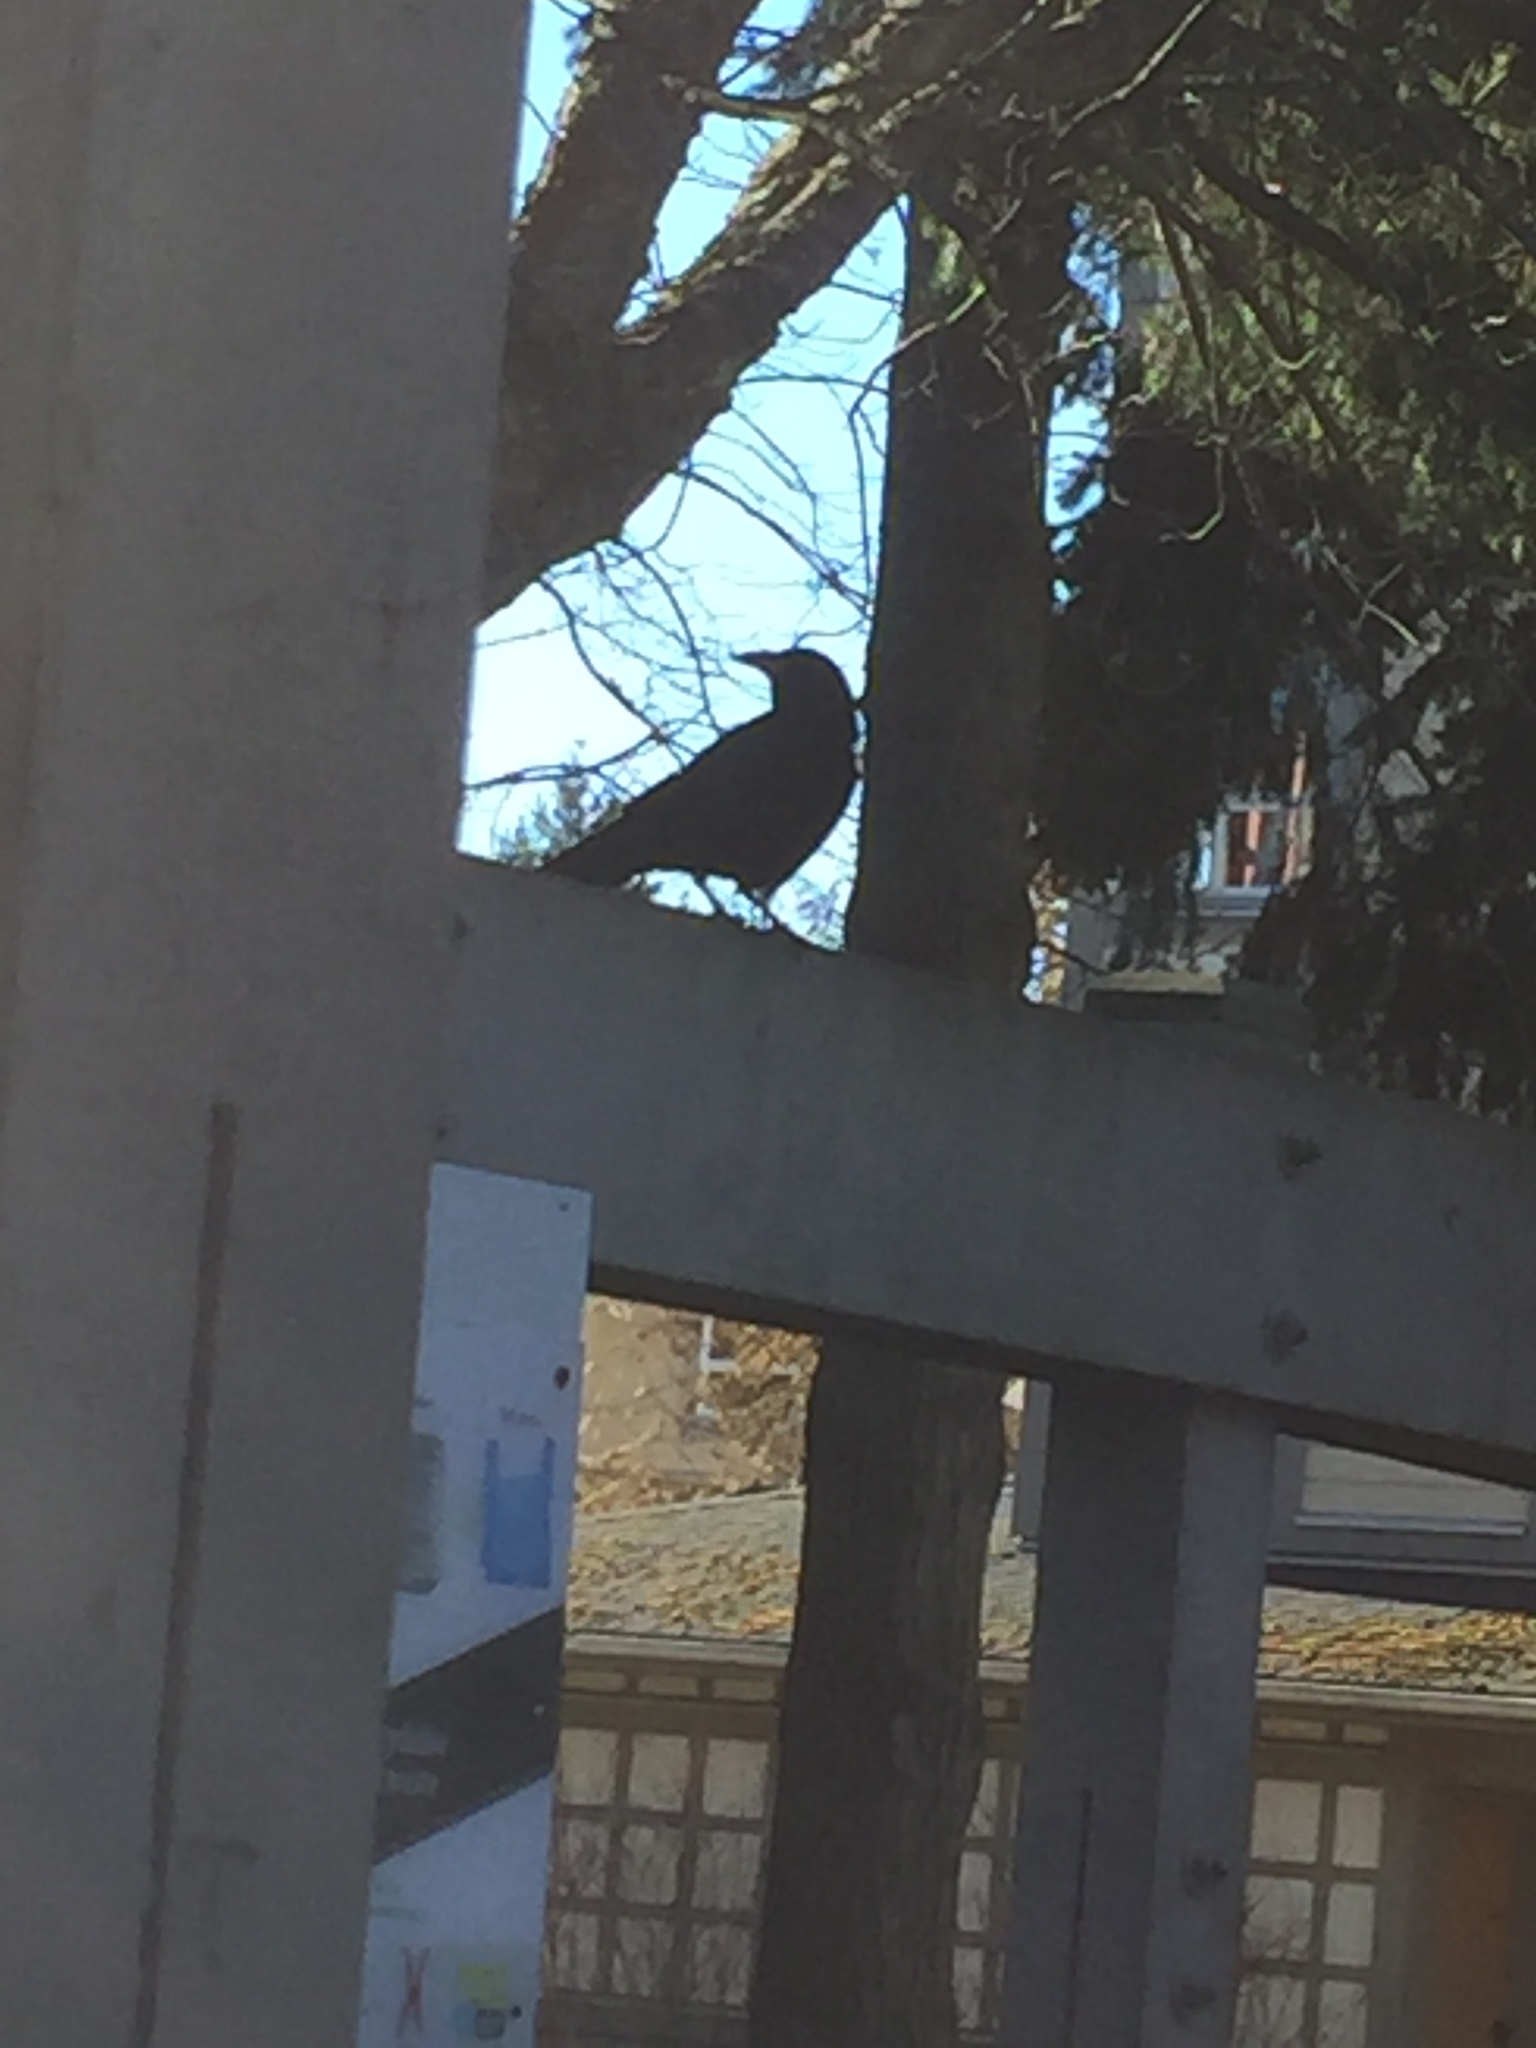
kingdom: Animalia
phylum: Chordata
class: Aves
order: Passeriformes
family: Corvidae
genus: Corvus
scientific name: Corvus brachyrhynchos
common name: American crow
